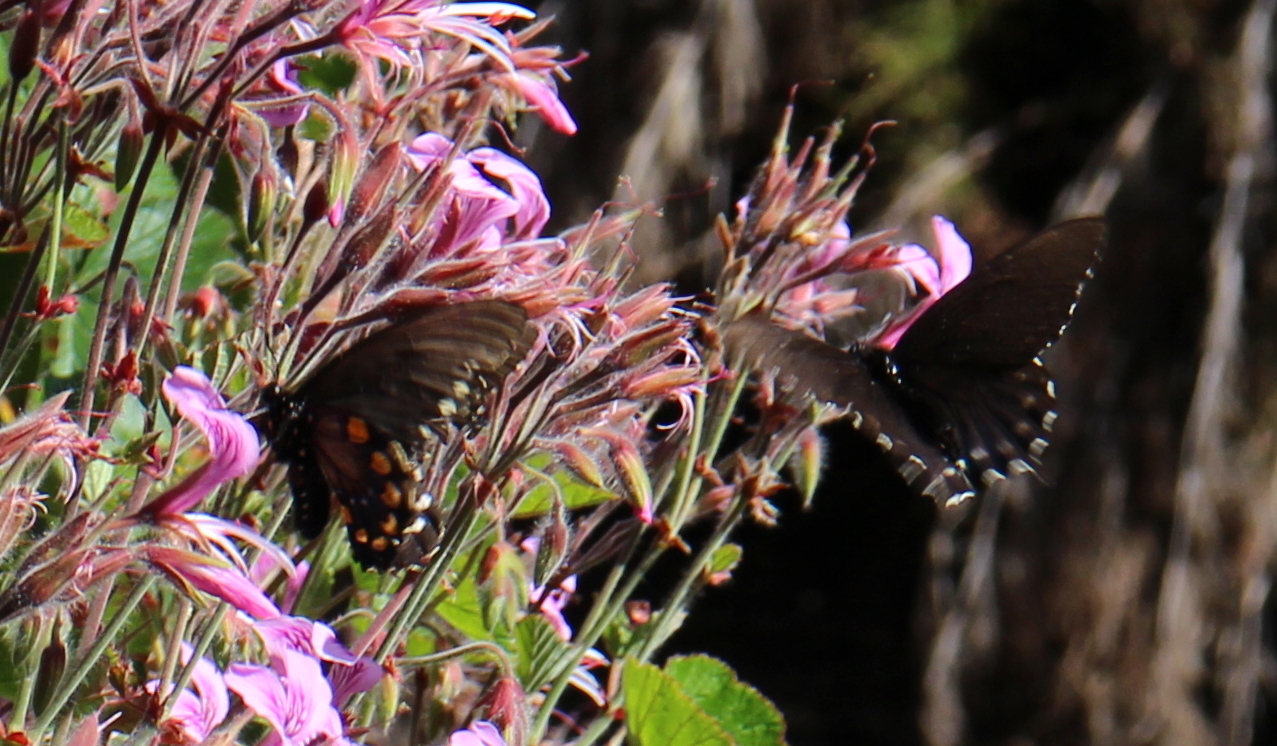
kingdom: Animalia
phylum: Arthropoda
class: Insecta
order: Lepidoptera
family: Papilionidae
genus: Battus
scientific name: Battus philenor
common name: Pipevine swallowtail
